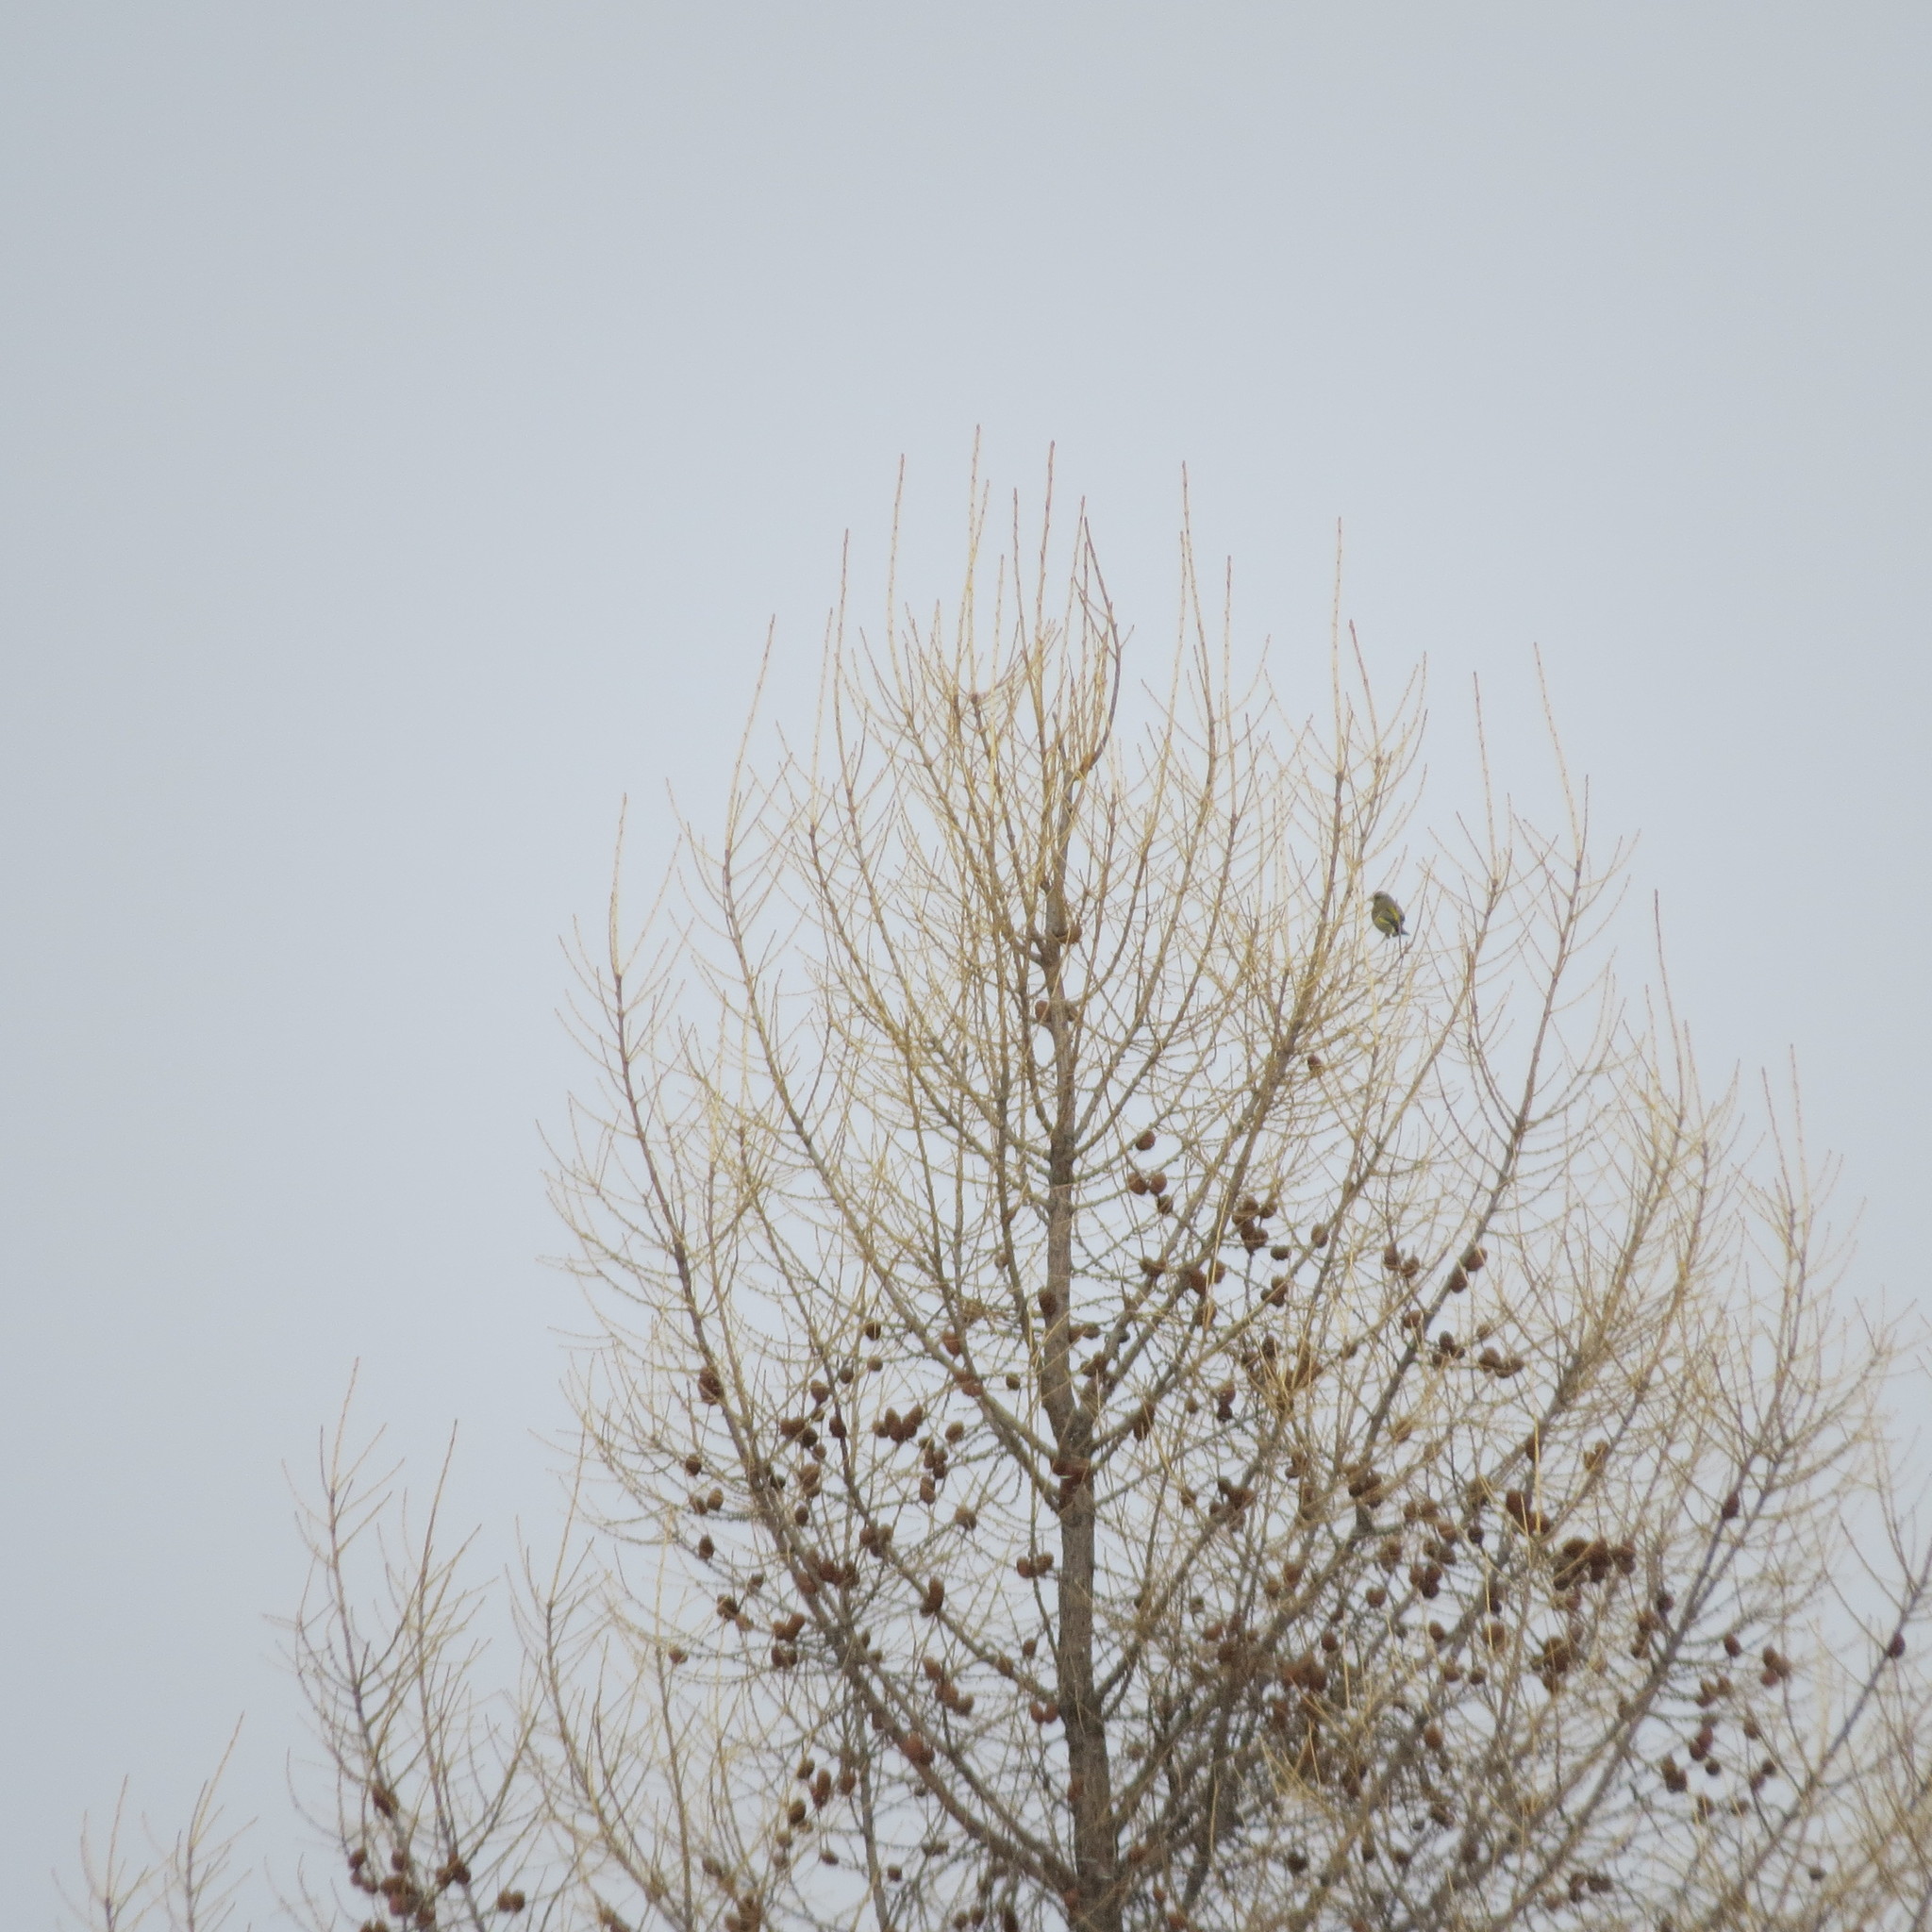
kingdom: Plantae
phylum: Tracheophyta
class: Liliopsida
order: Poales
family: Poaceae
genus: Chloris
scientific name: Chloris chloris
